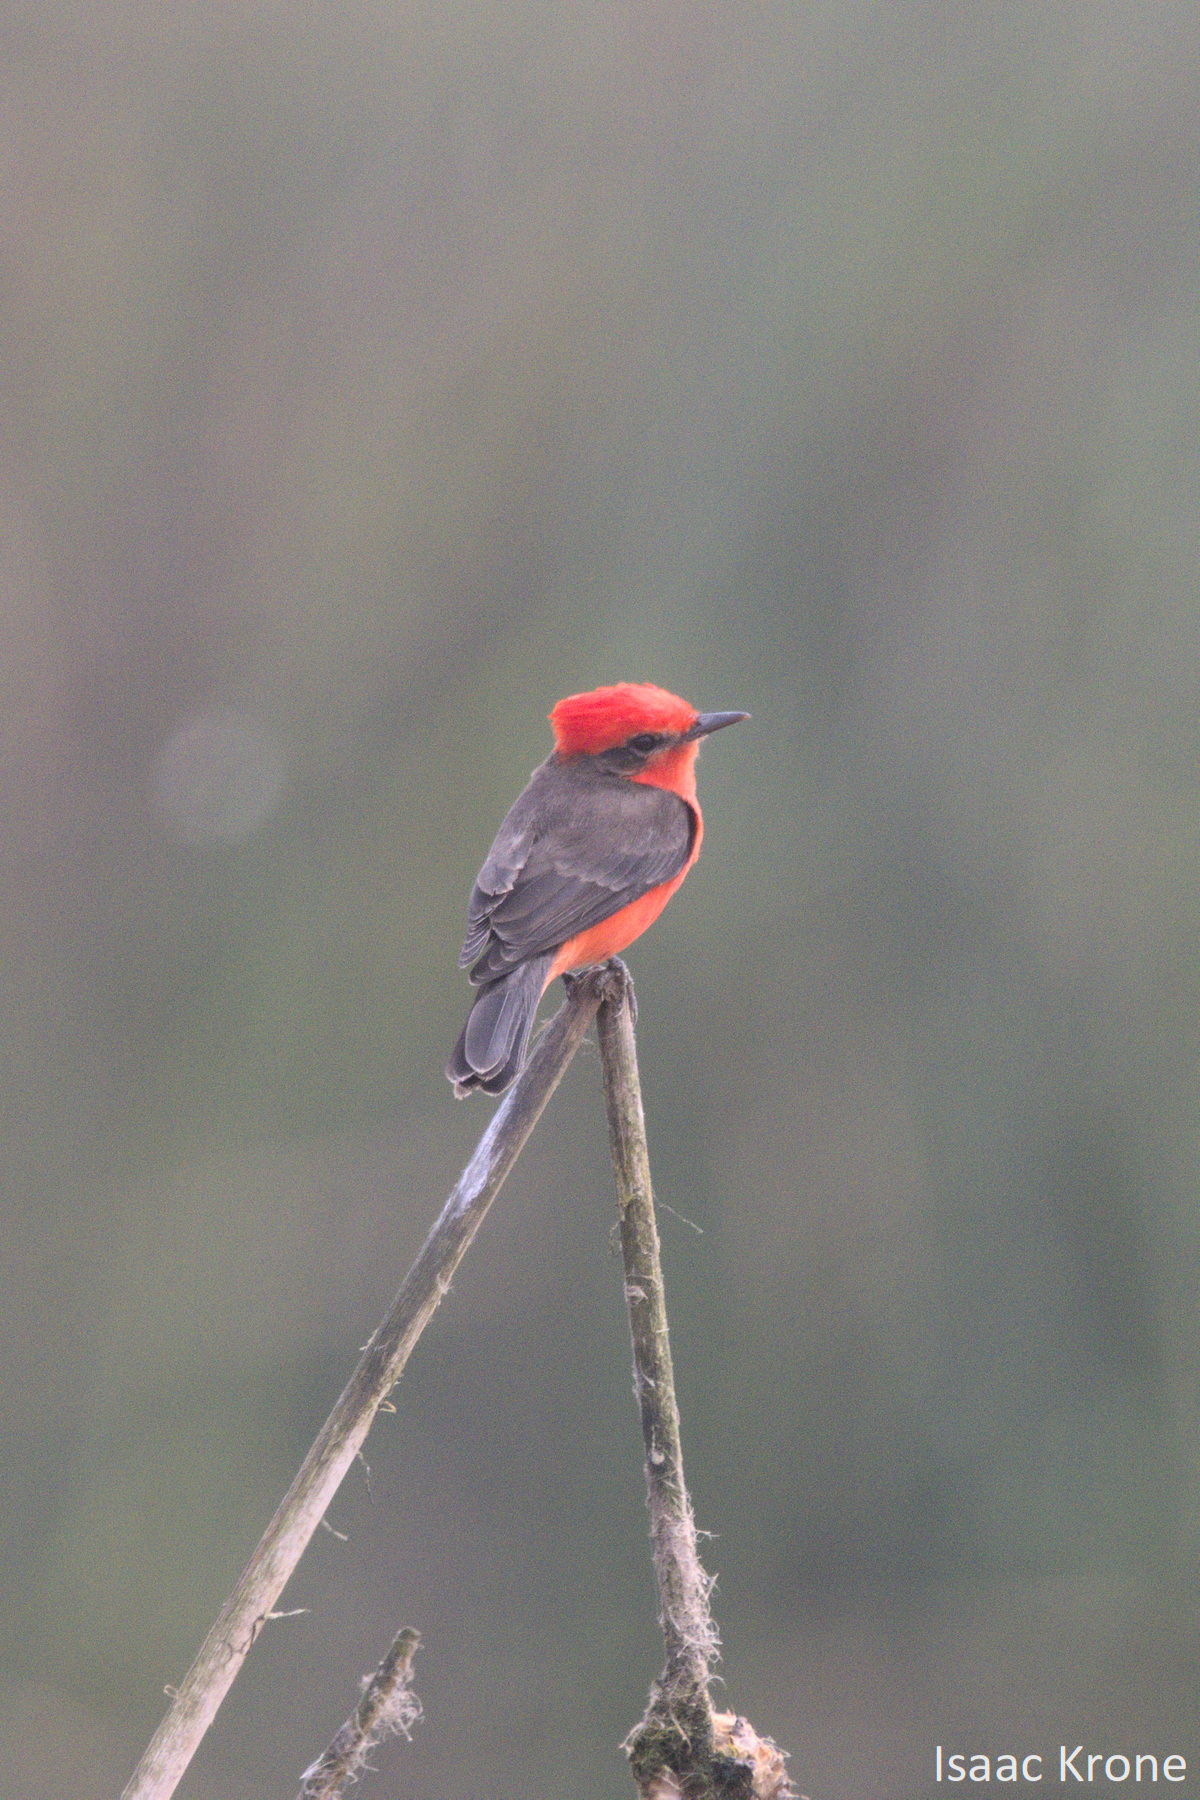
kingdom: Animalia
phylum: Chordata
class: Aves
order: Passeriformes
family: Tyrannidae
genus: Pyrocephalus
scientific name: Pyrocephalus rubinus
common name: Vermilion flycatcher
